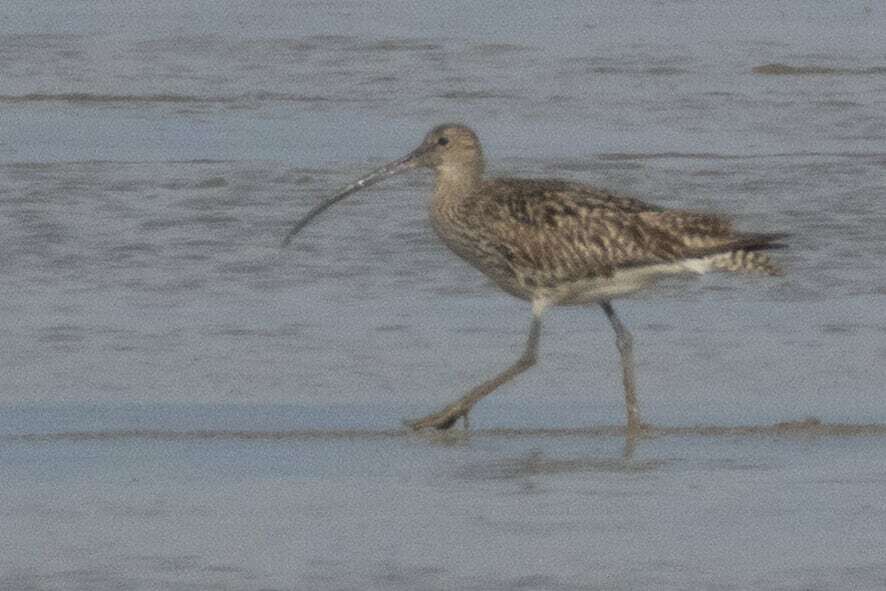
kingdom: Animalia
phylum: Chordata
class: Aves
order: Charadriiformes
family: Scolopacidae
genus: Numenius
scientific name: Numenius arquata
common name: Eurasian curlew
